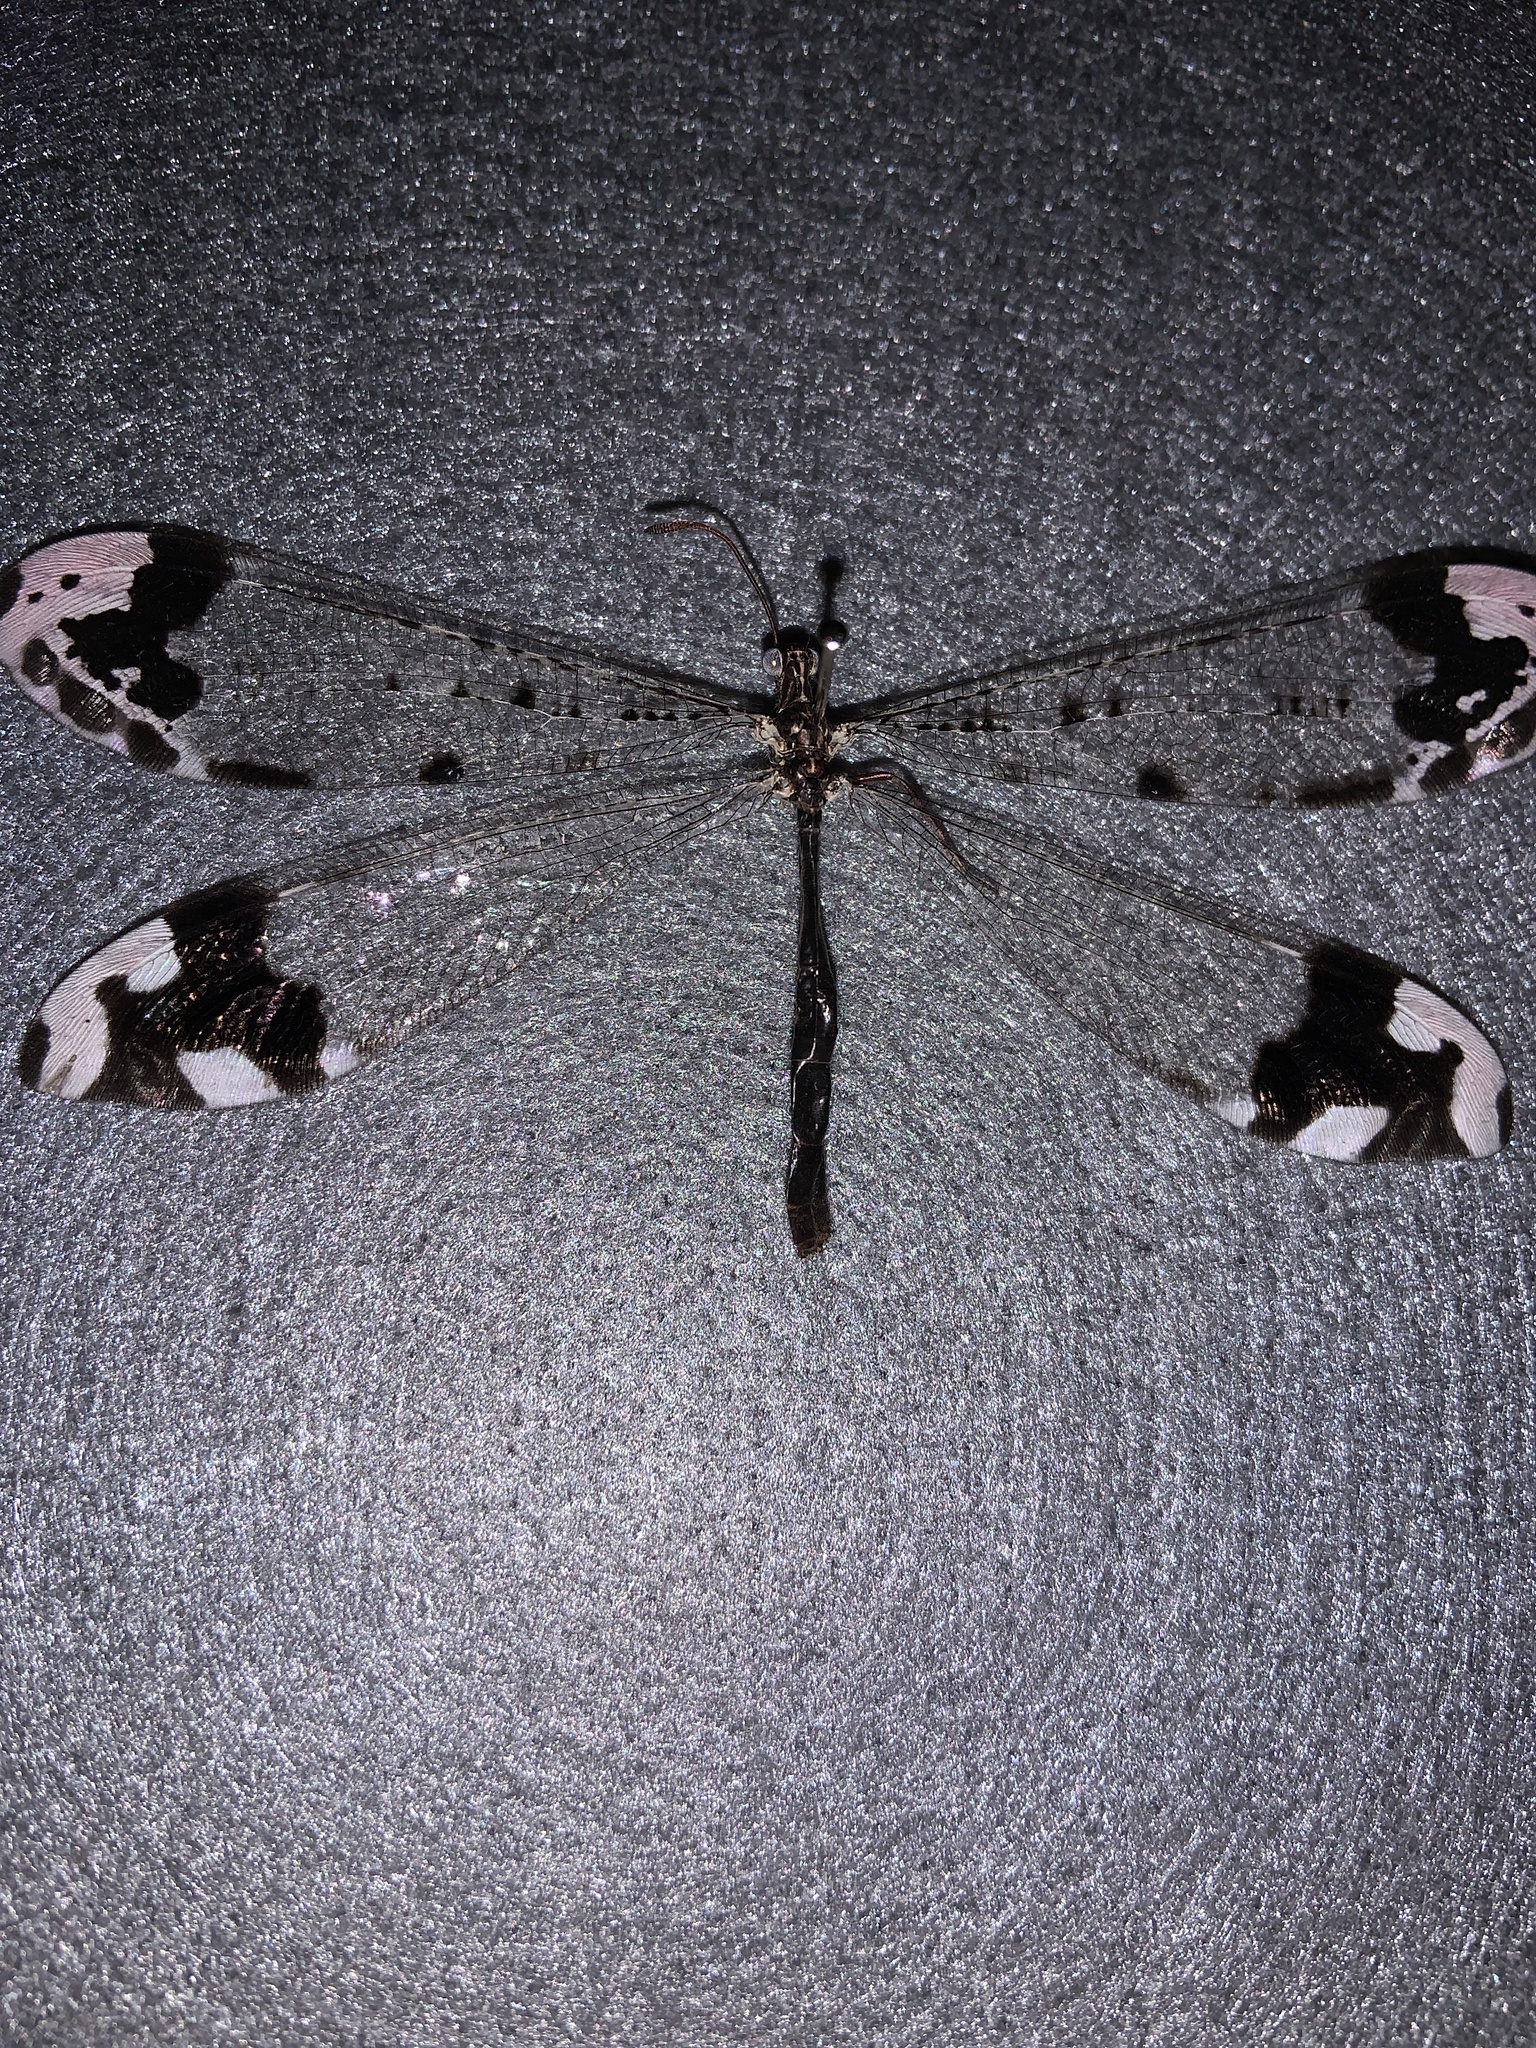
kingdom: Animalia
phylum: Arthropoda
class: Insecta
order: Neuroptera
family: Myrmeleontidae
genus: Glenurus
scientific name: Glenurus gratus
